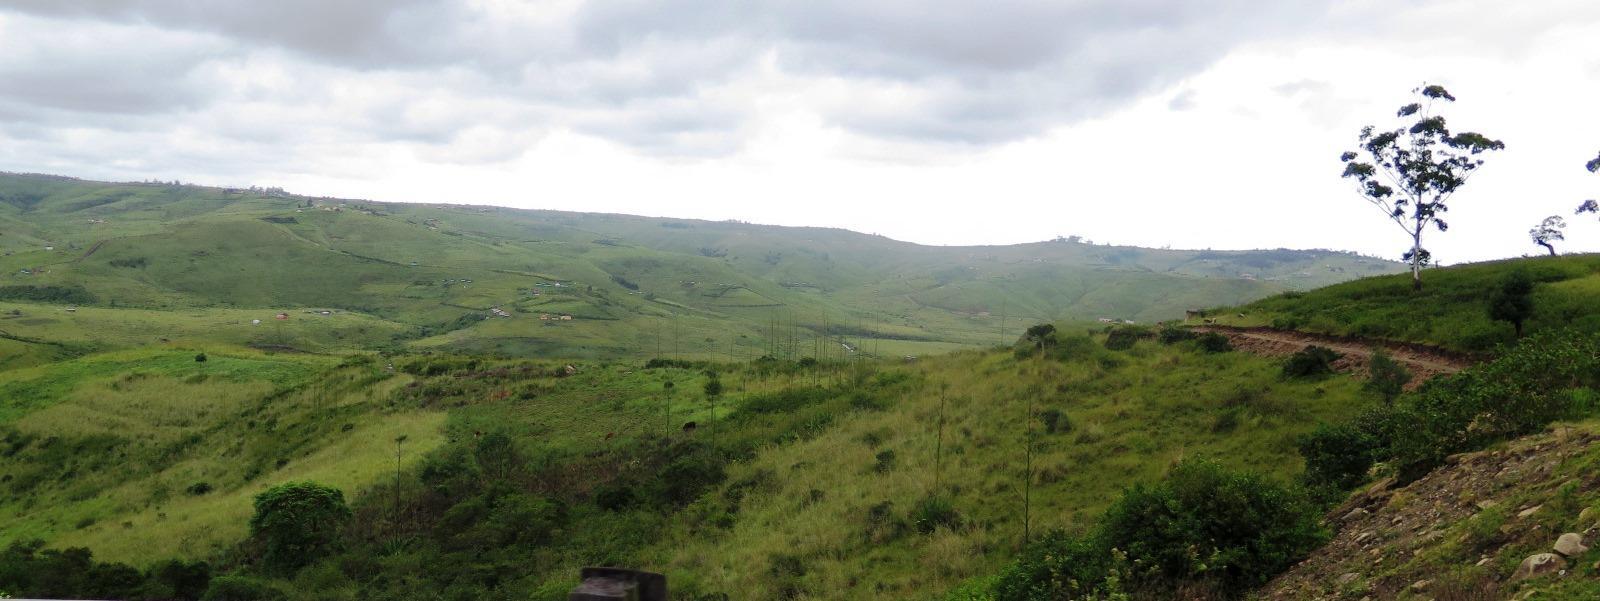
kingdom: Plantae
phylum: Tracheophyta
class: Liliopsida
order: Asparagales
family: Asparagaceae
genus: Furcraea
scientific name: Furcraea foetida
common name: Mauritius hemp
